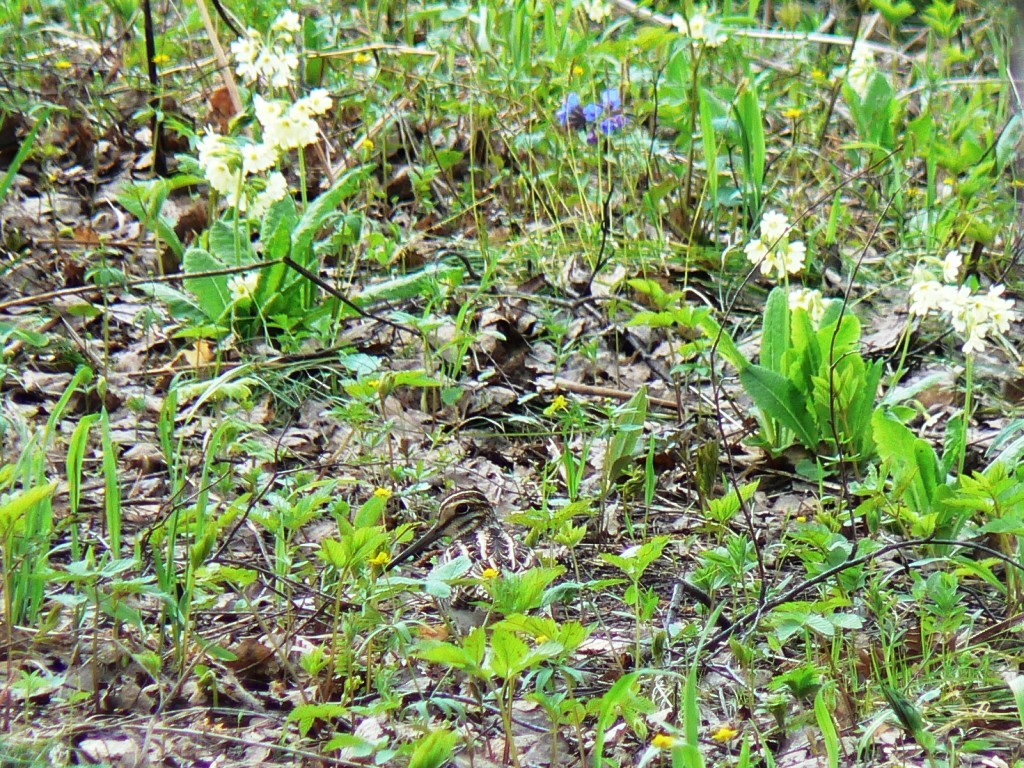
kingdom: Animalia
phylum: Chordata
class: Aves
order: Charadriiformes
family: Scolopacidae
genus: Gallinago
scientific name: Gallinago megala
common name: Swinhoe's snipe
